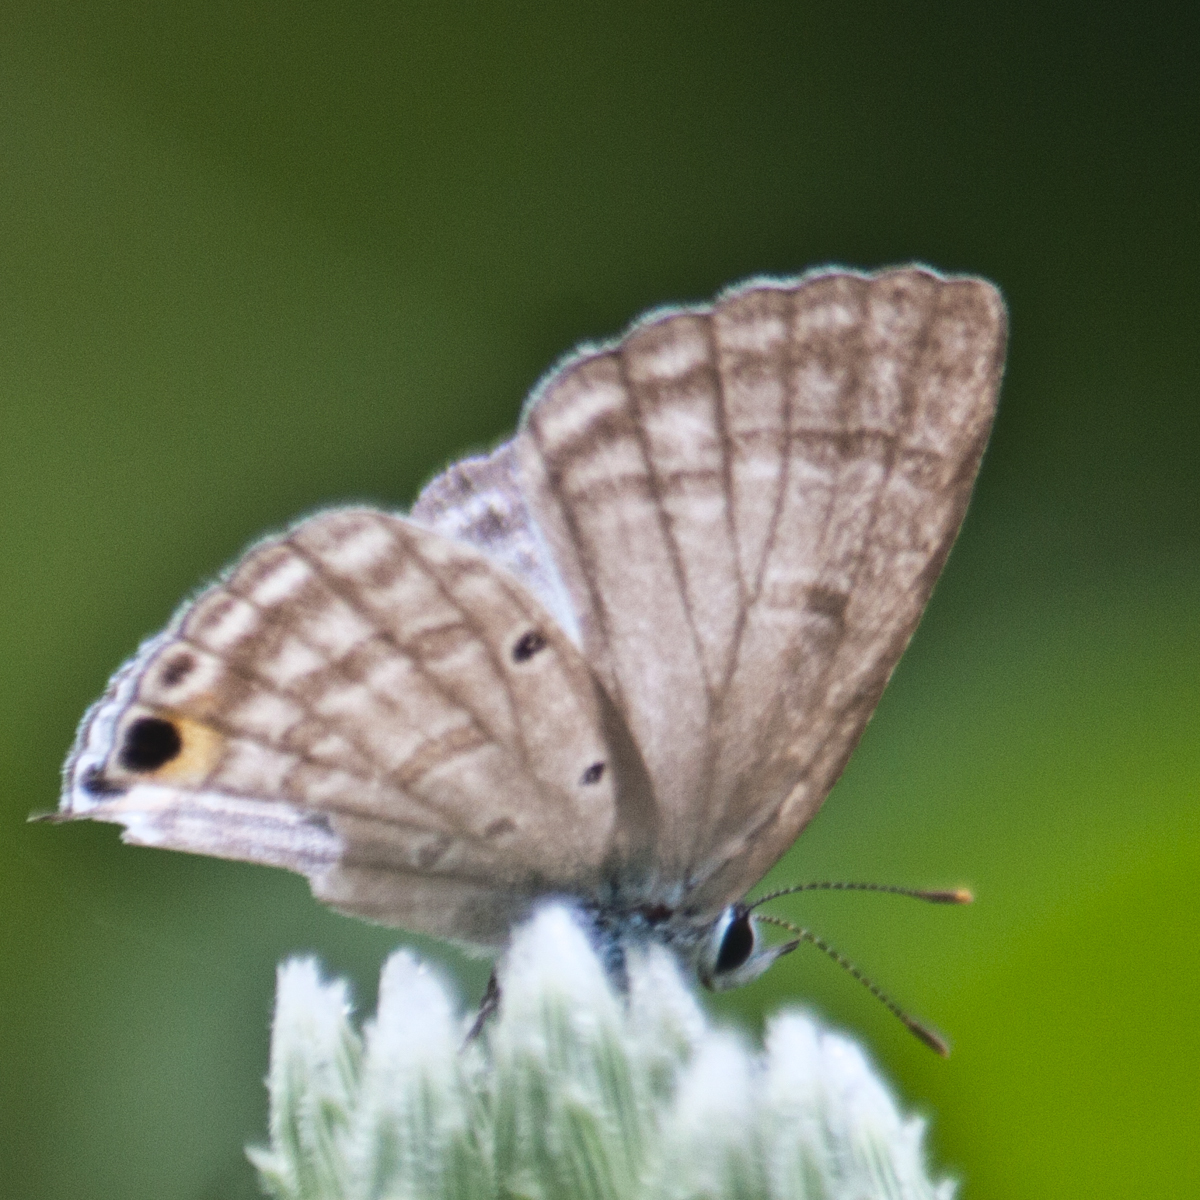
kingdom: Animalia
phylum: Arthropoda
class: Insecta
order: Lepidoptera
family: Lycaenidae
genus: Catochrysops
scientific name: Catochrysops strabo
